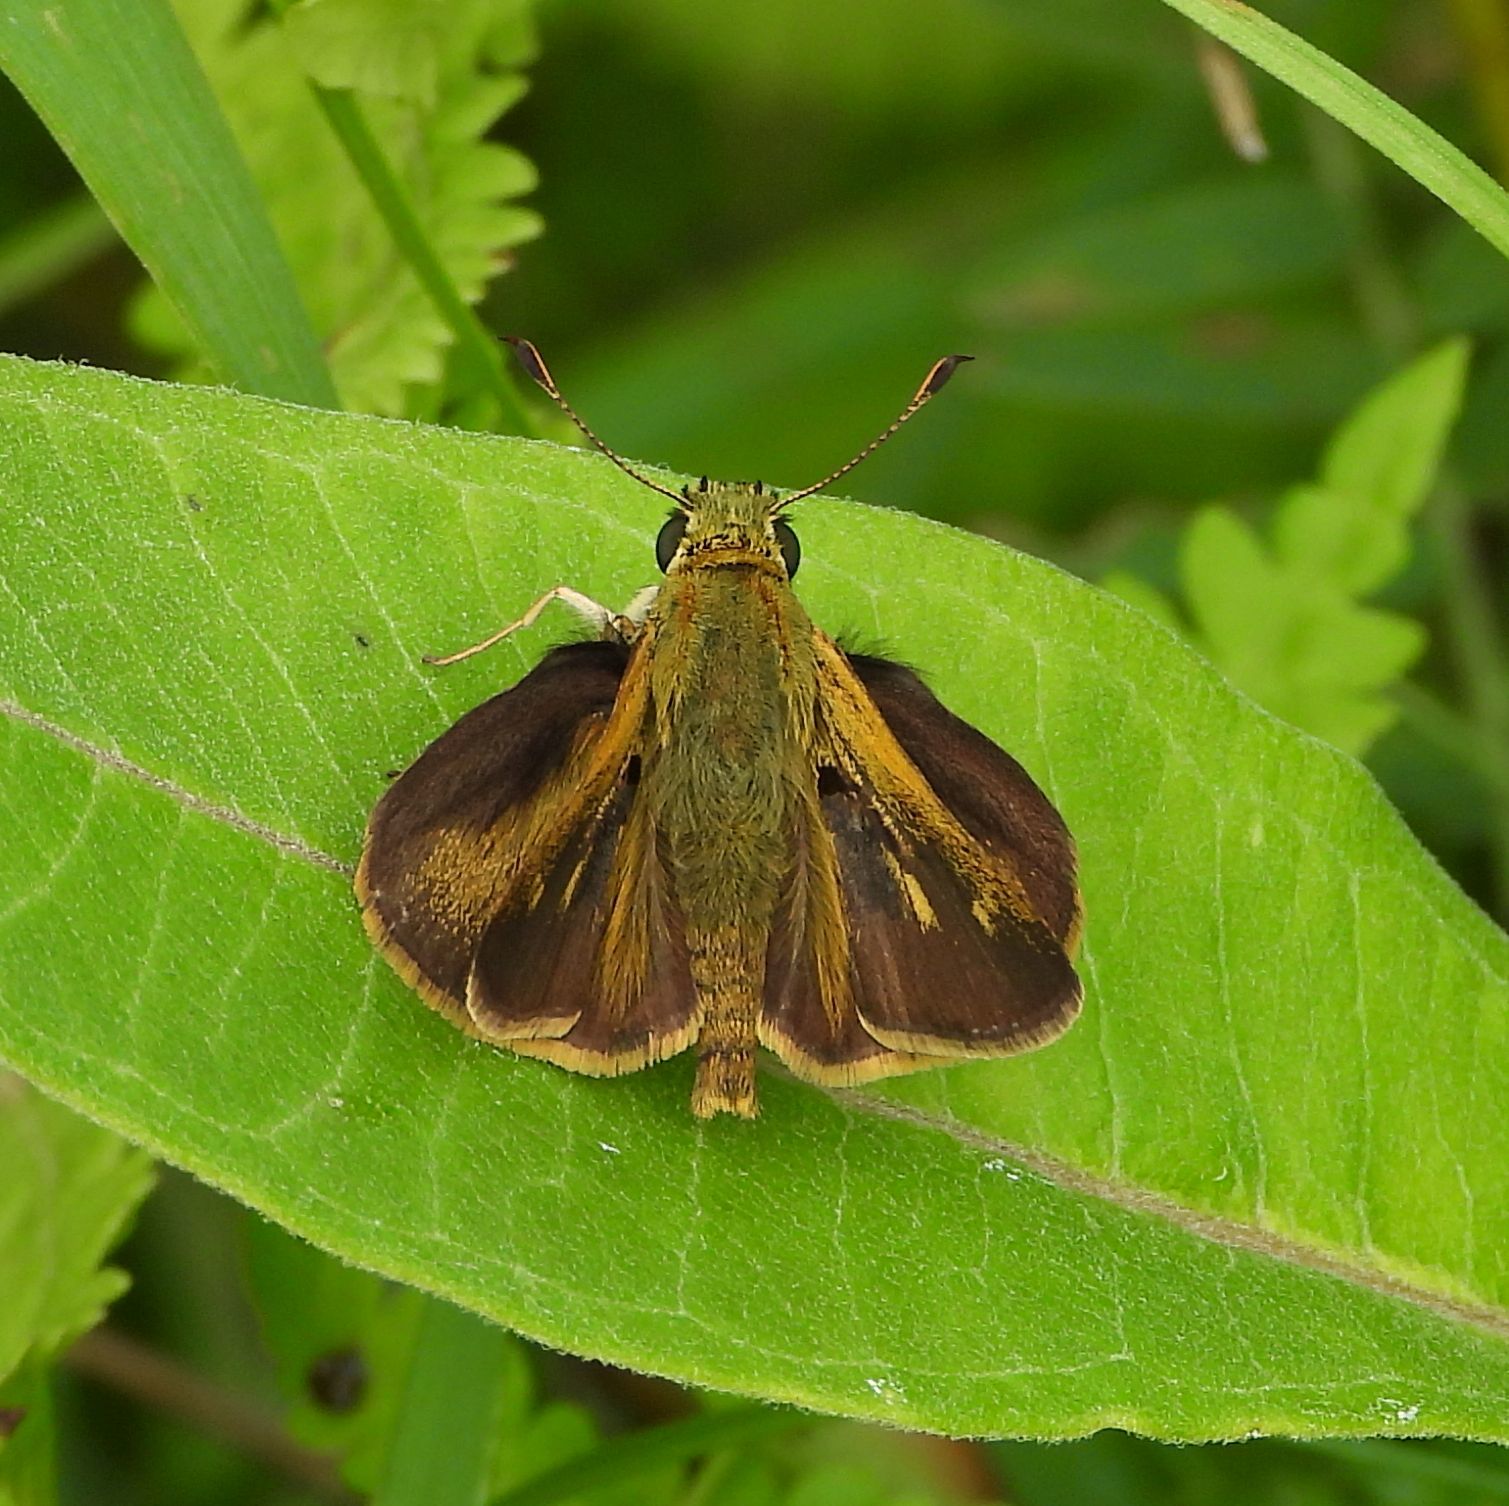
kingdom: Animalia
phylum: Arthropoda
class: Insecta
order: Lepidoptera
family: Hesperiidae
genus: Polites
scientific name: Polites egeremet
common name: Northern broken-dash
